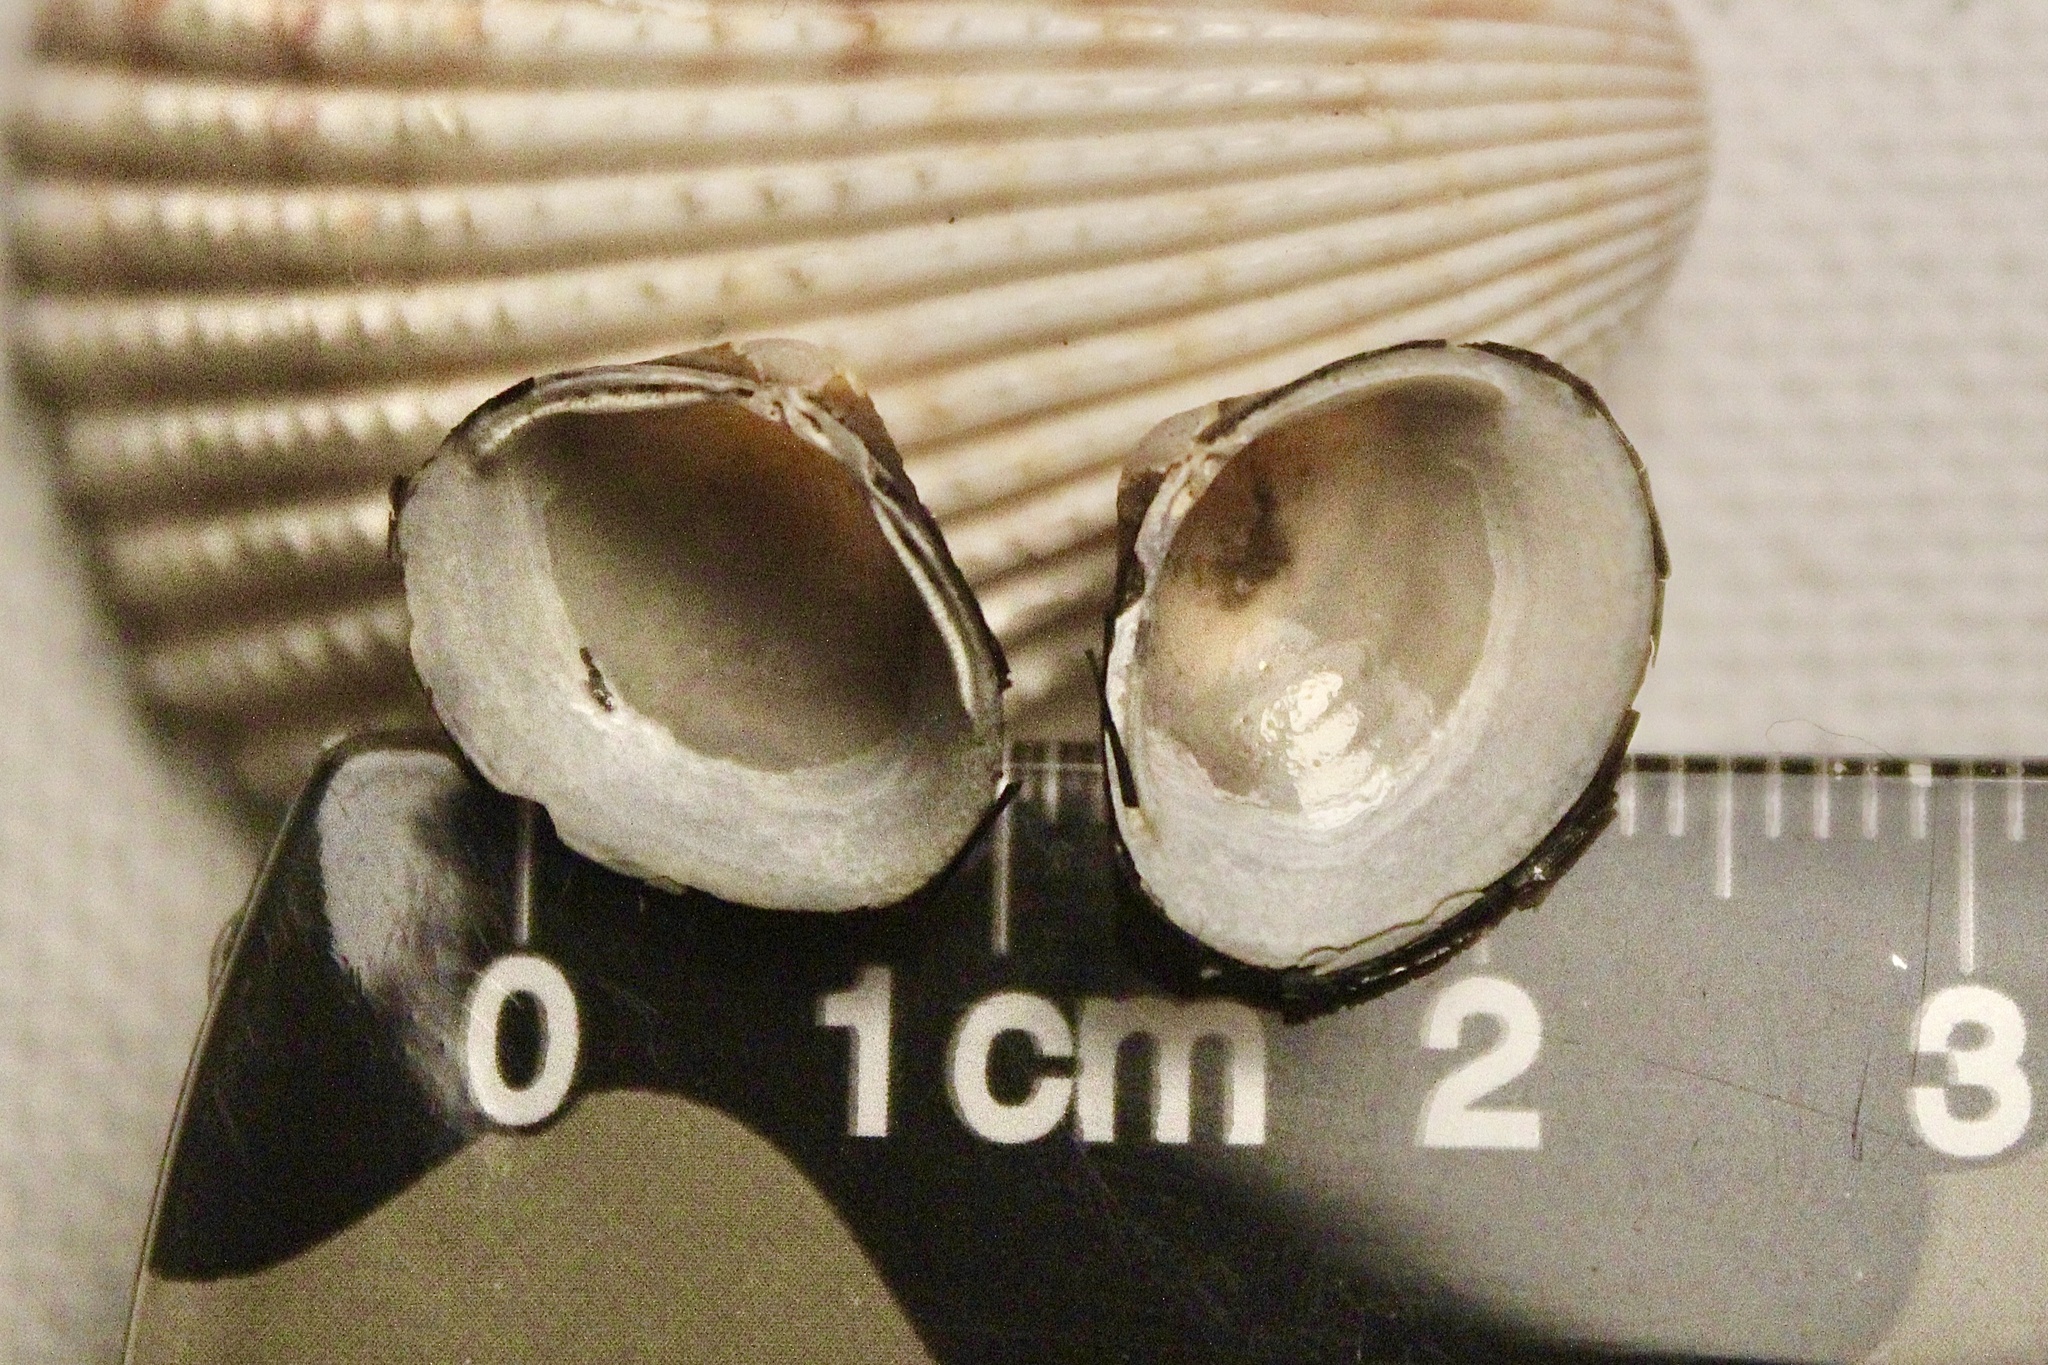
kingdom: Animalia
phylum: Mollusca
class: Bivalvia
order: Venerida
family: Cyrenidae
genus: Corbicula
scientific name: Corbicula fluminea
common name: Asian clam
